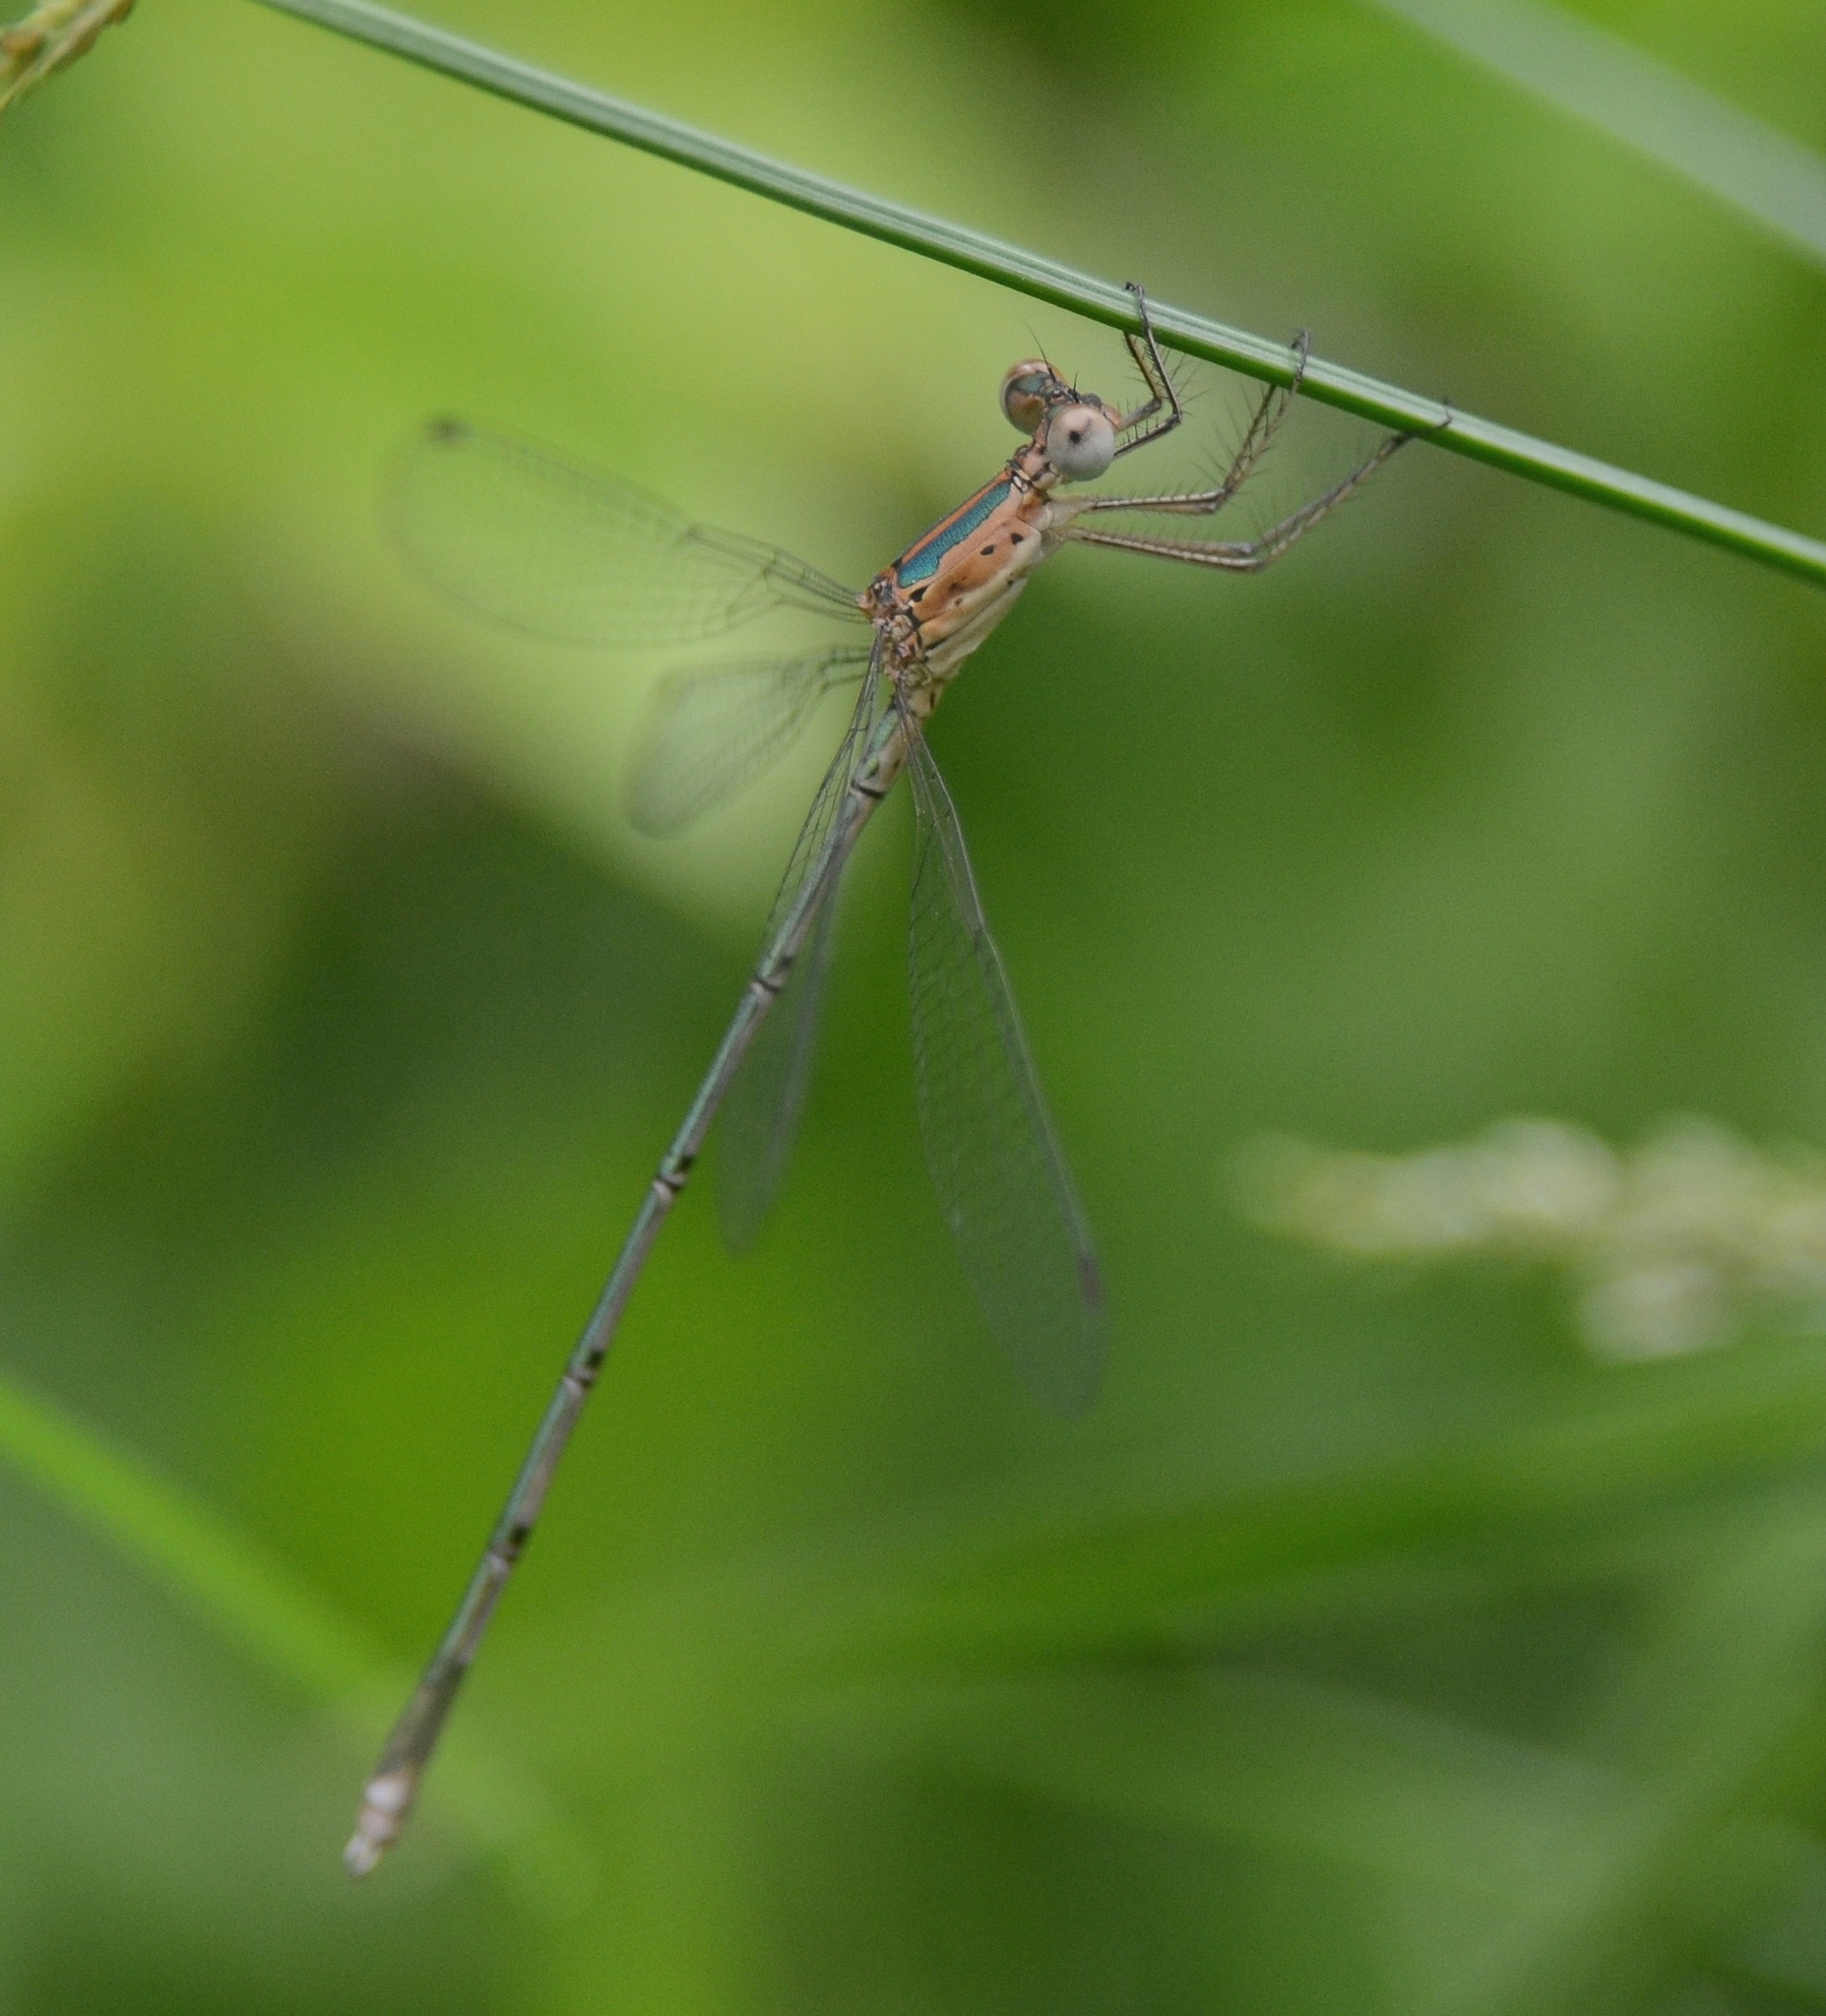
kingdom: Animalia
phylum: Arthropoda
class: Insecta
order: Odonata
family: Lestidae
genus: Lestes
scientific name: Lestes elatus
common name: Emerald spreadwing
